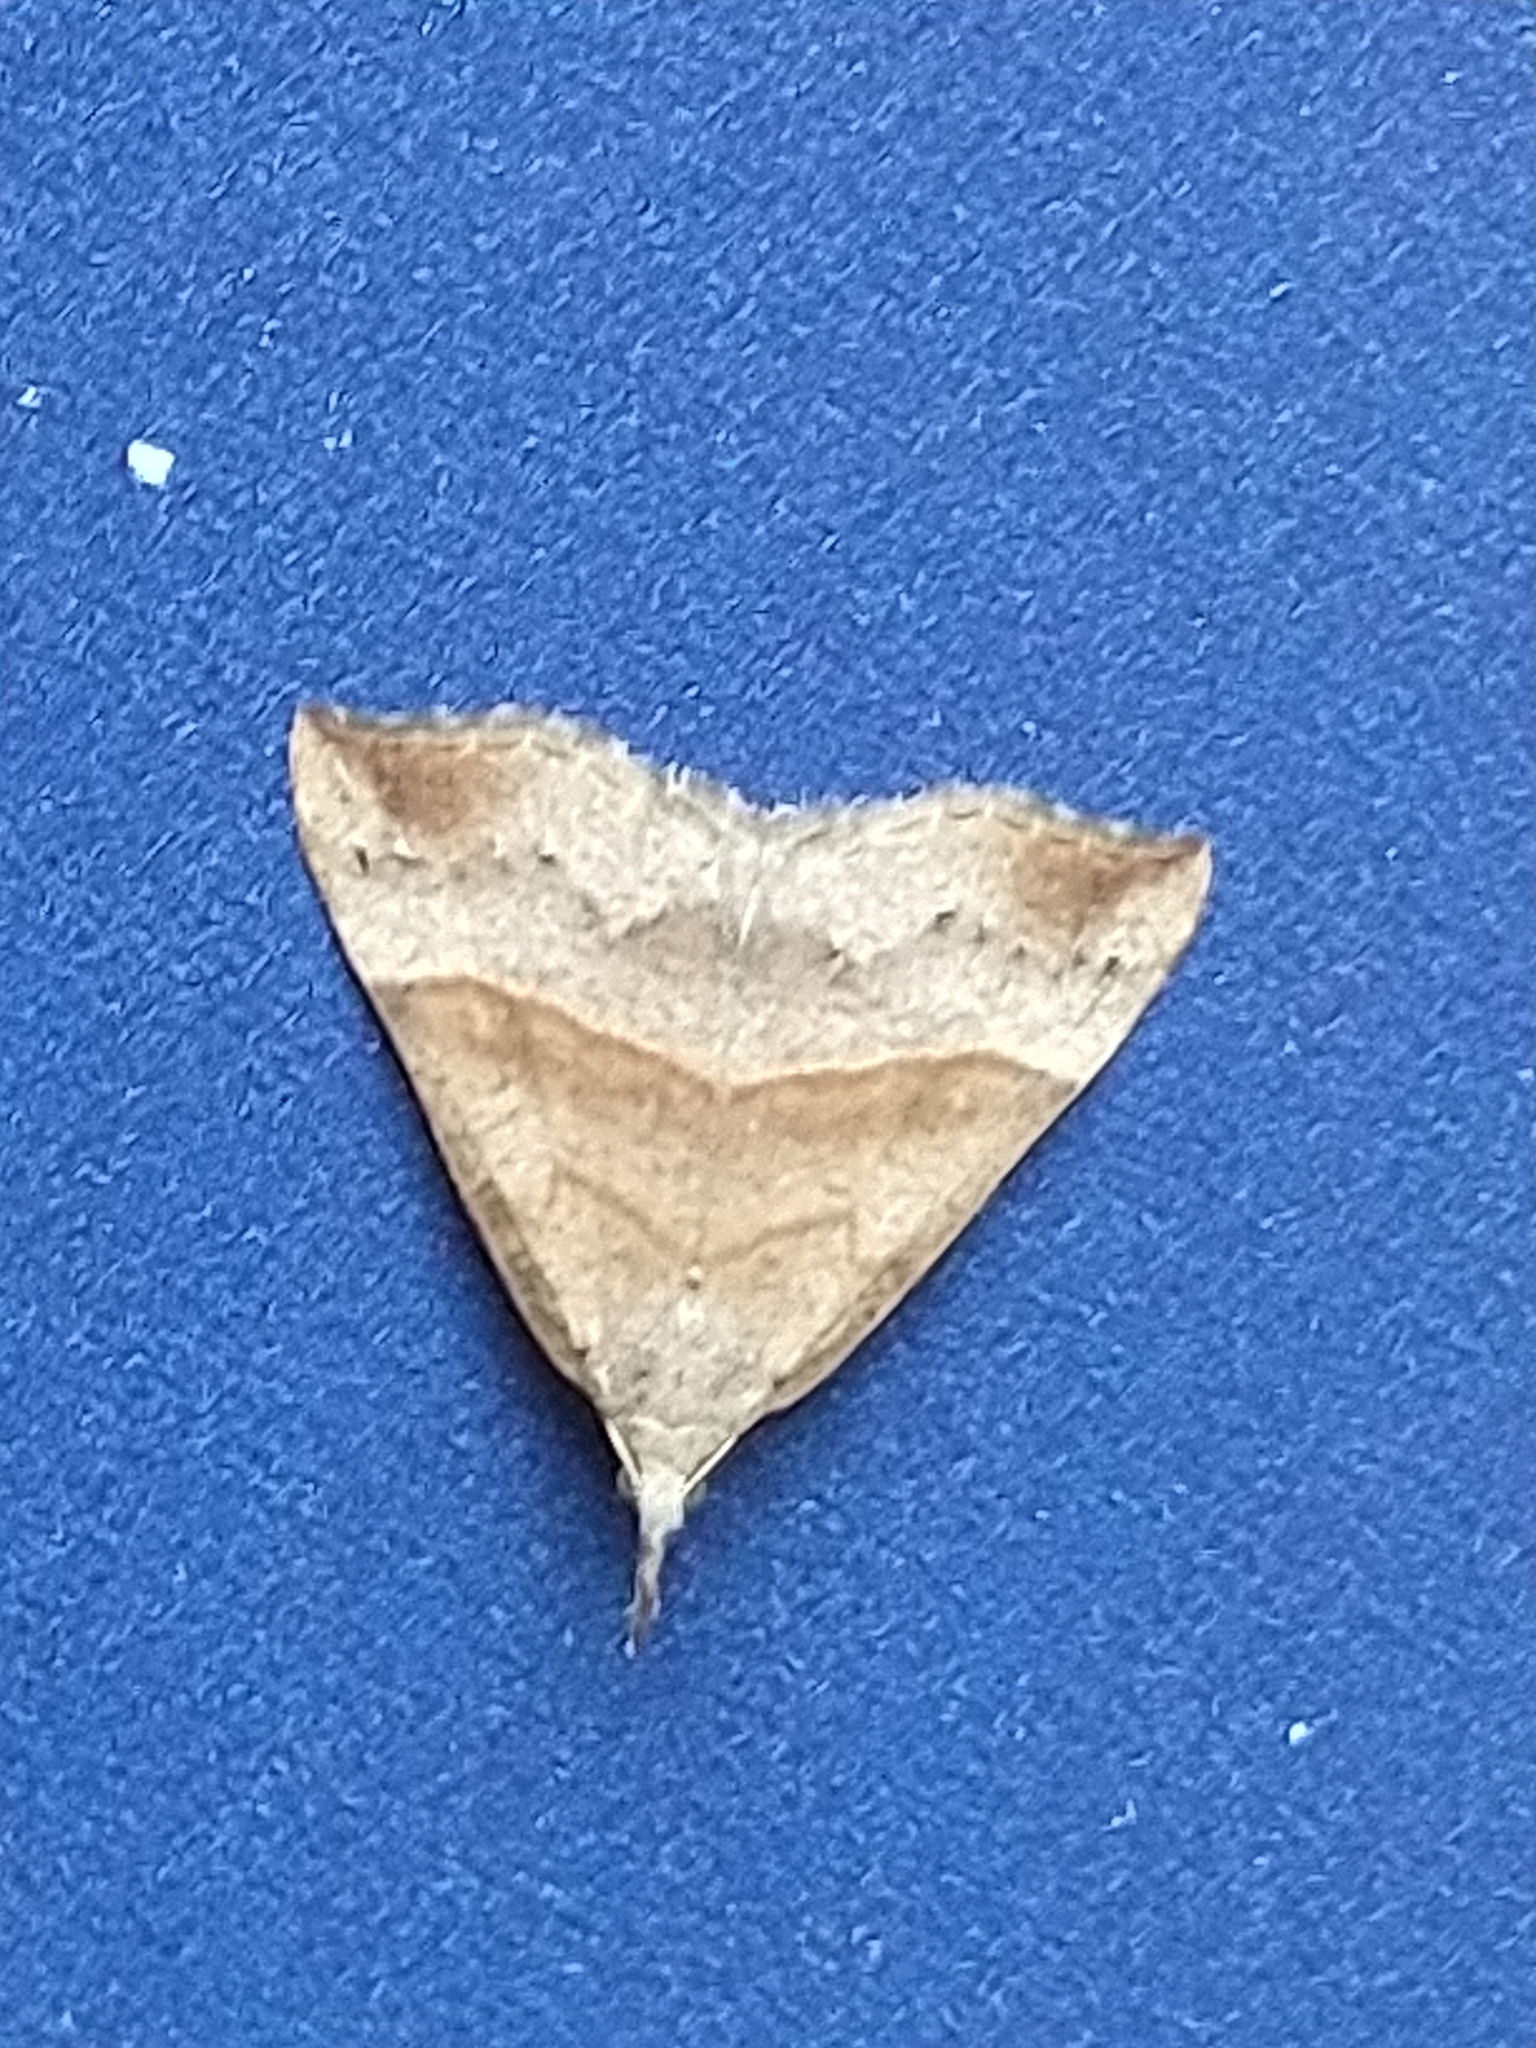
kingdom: Animalia
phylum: Arthropoda
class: Insecta
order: Lepidoptera
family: Erebidae
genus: Hypena
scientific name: Hypena proboscidalis
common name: Snout
